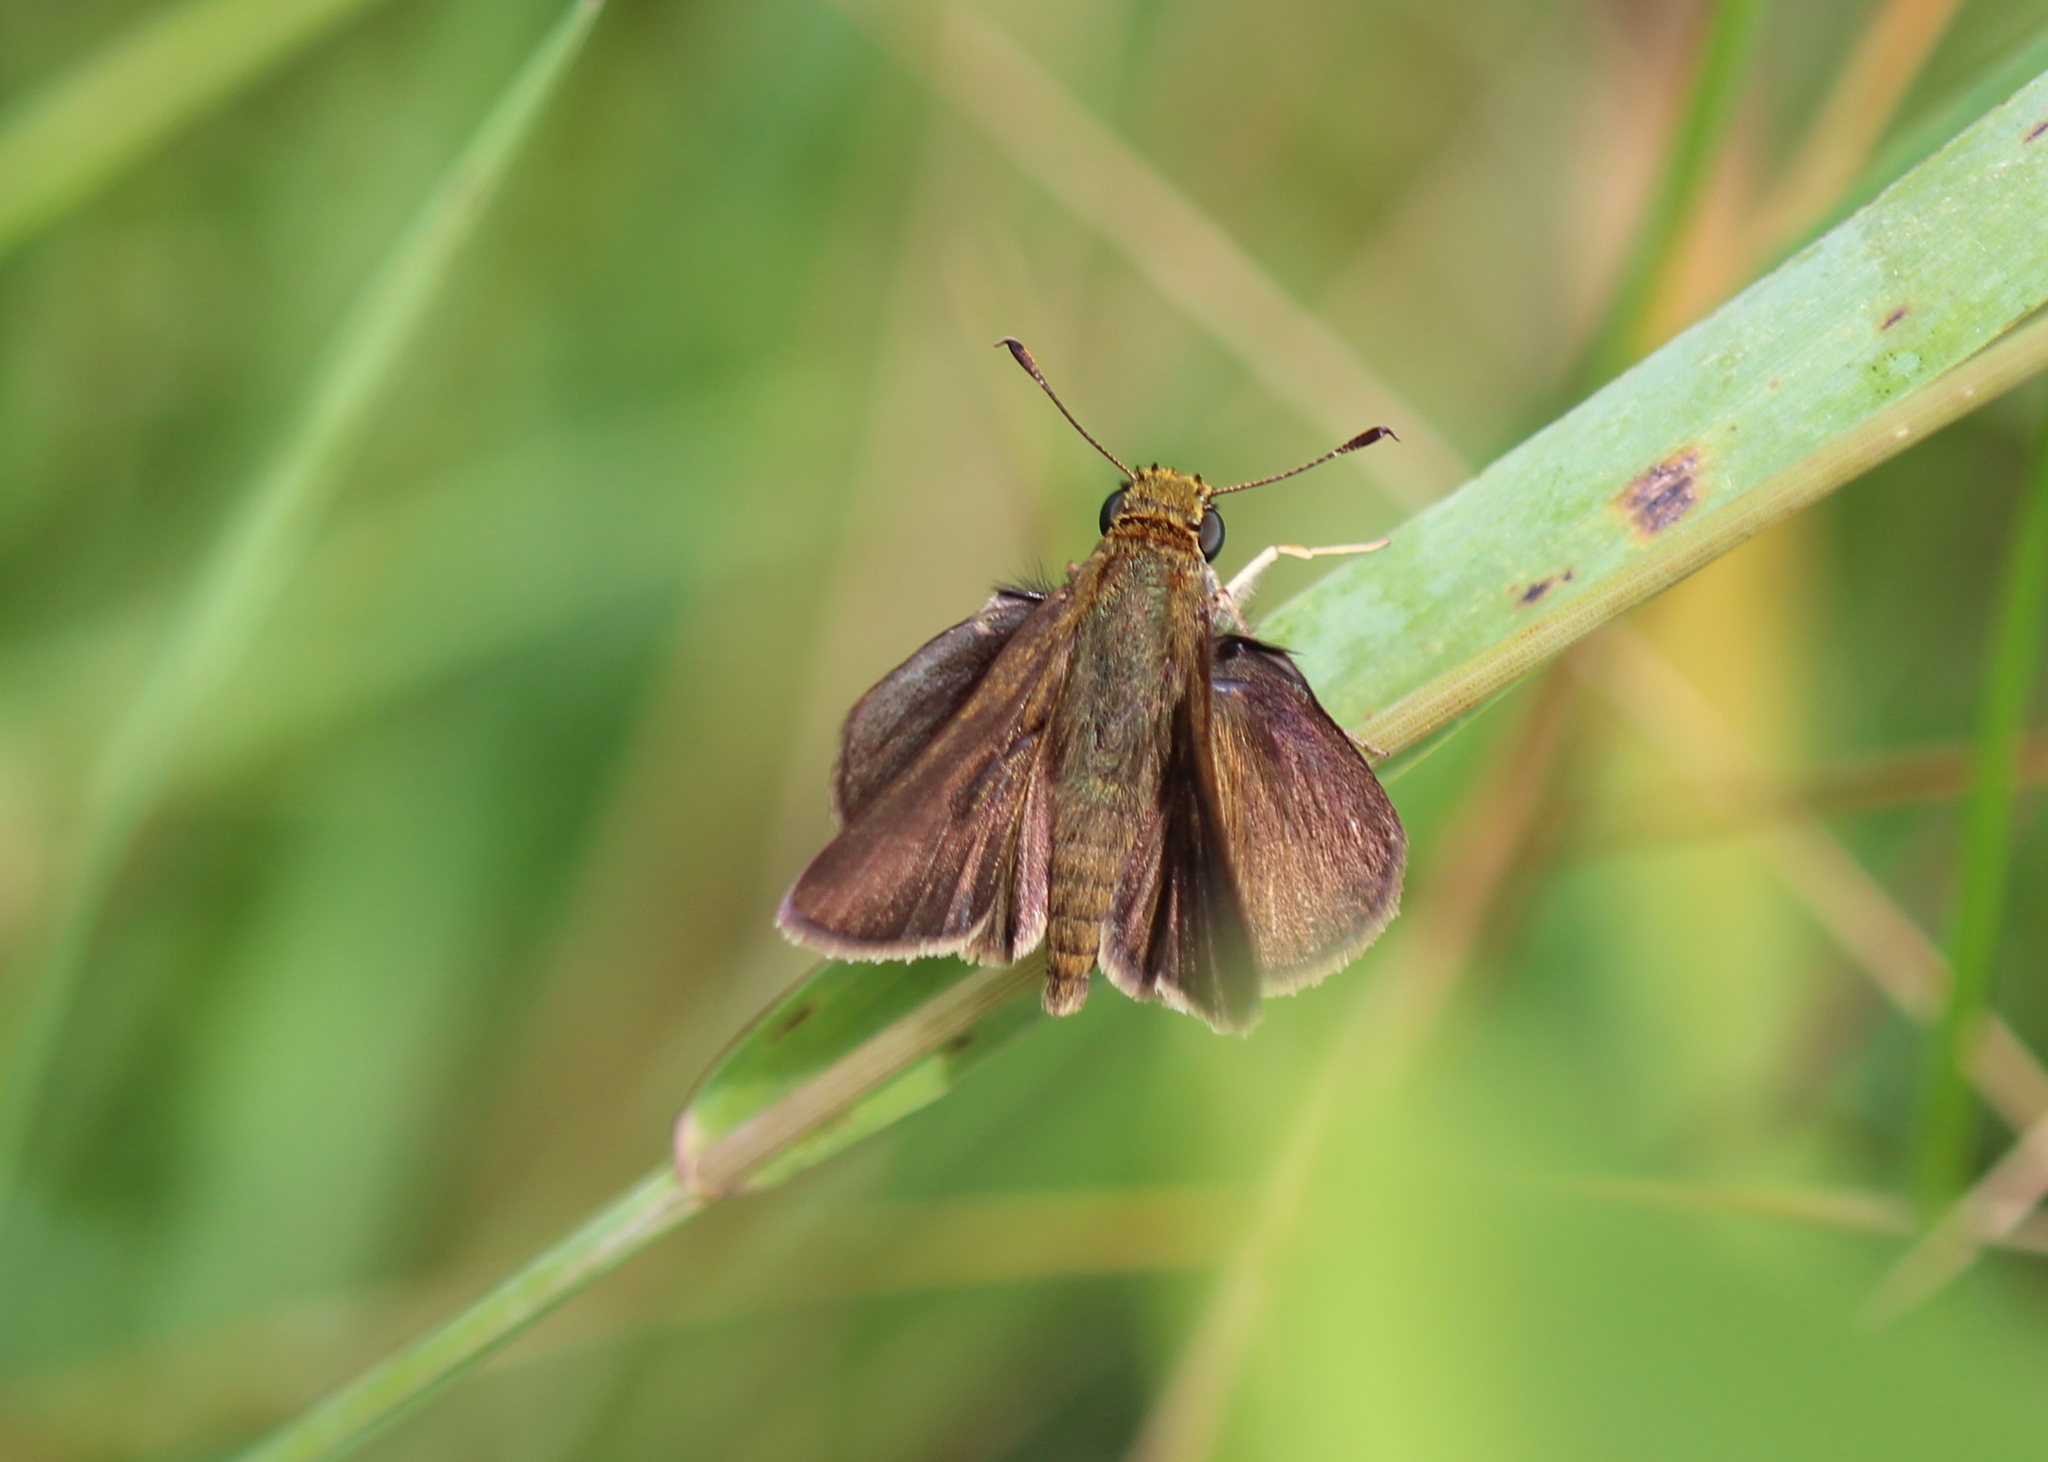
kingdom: Animalia
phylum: Arthropoda
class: Insecta
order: Lepidoptera
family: Hesperiidae
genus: Euphyes
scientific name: Euphyes vestris
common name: Dun skipper
